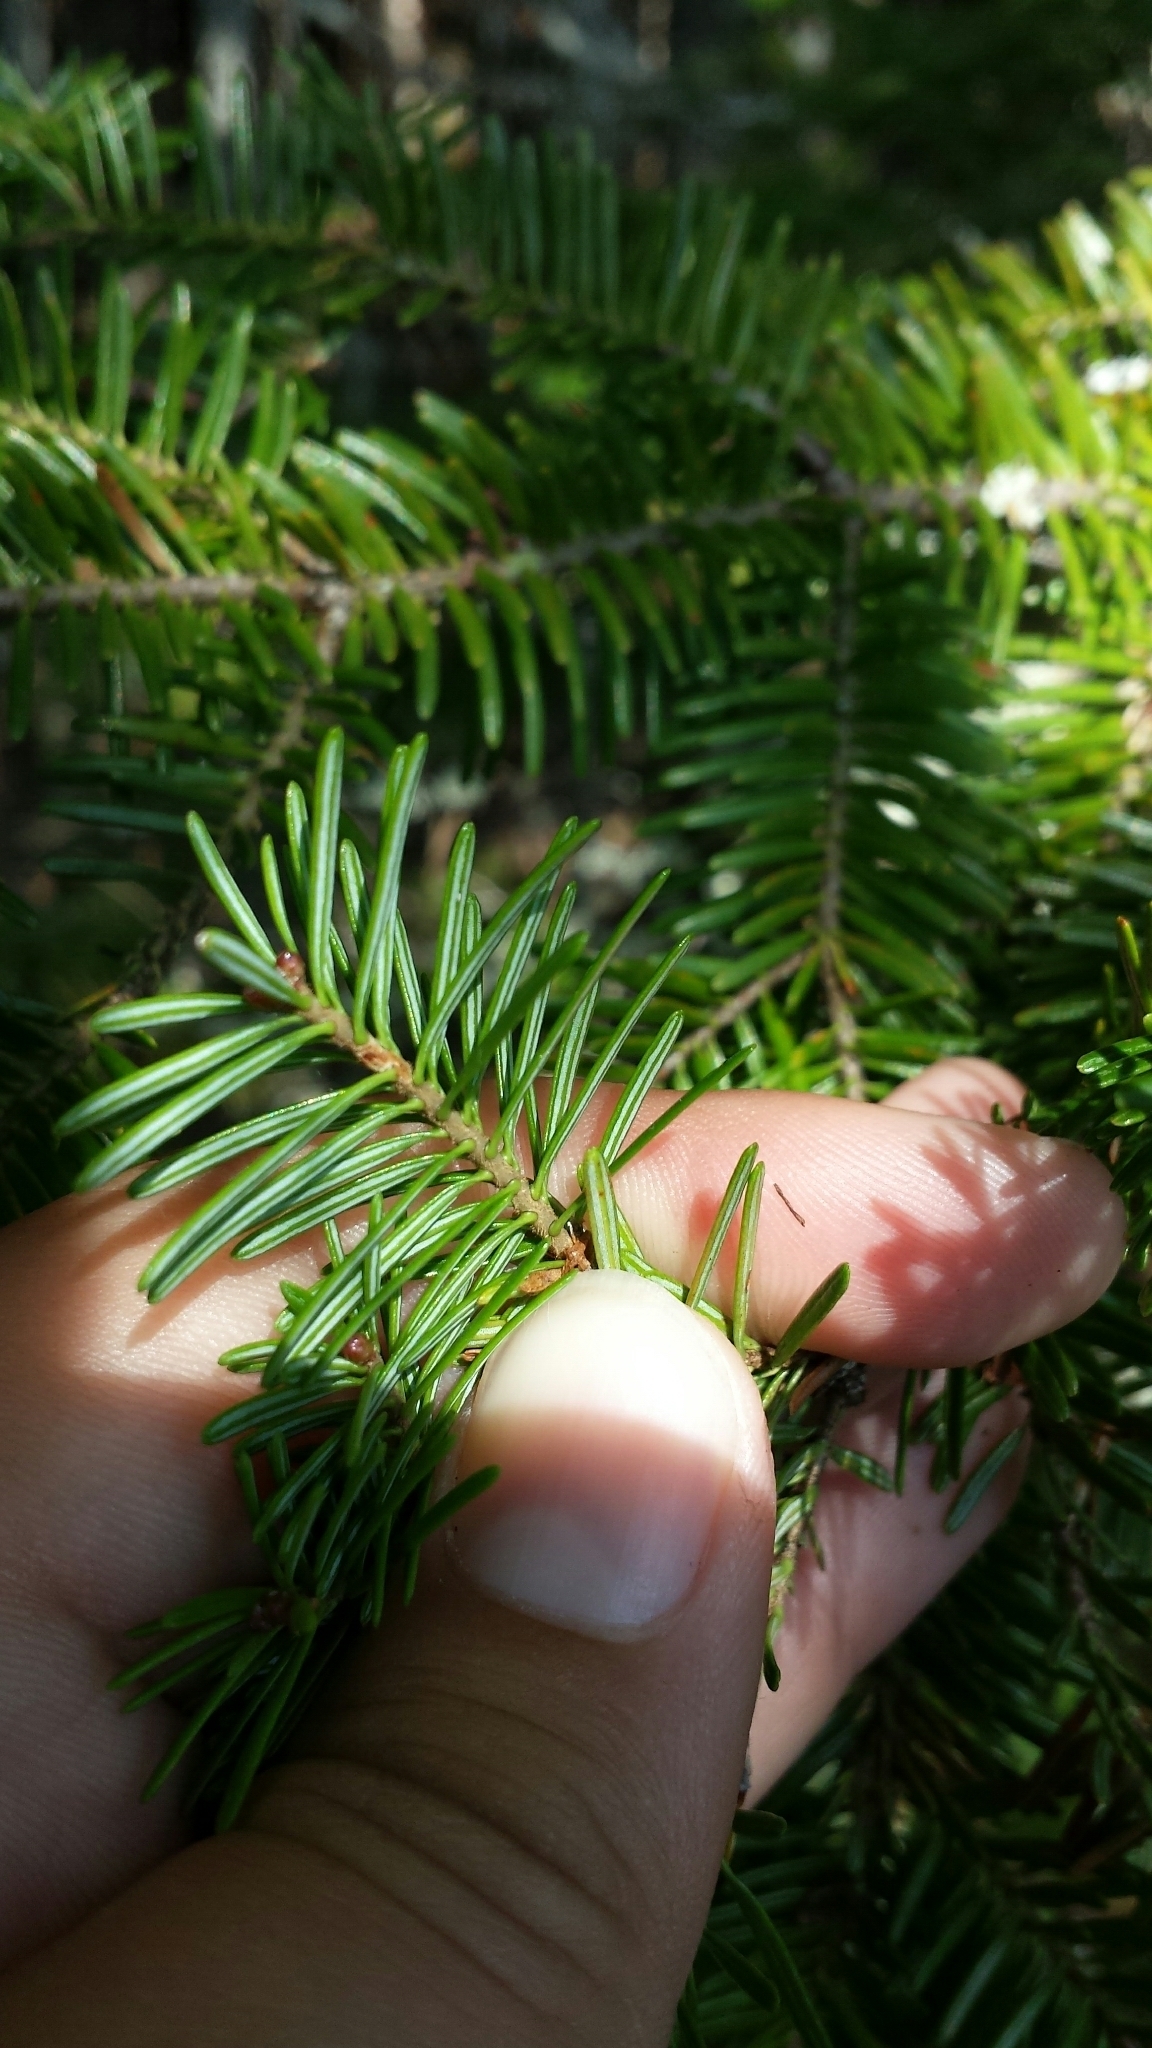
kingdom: Plantae
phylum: Tracheophyta
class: Pinopsida
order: Pinales
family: Pinaceae
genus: Abies
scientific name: Abies balsamea
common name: Balsam fir
